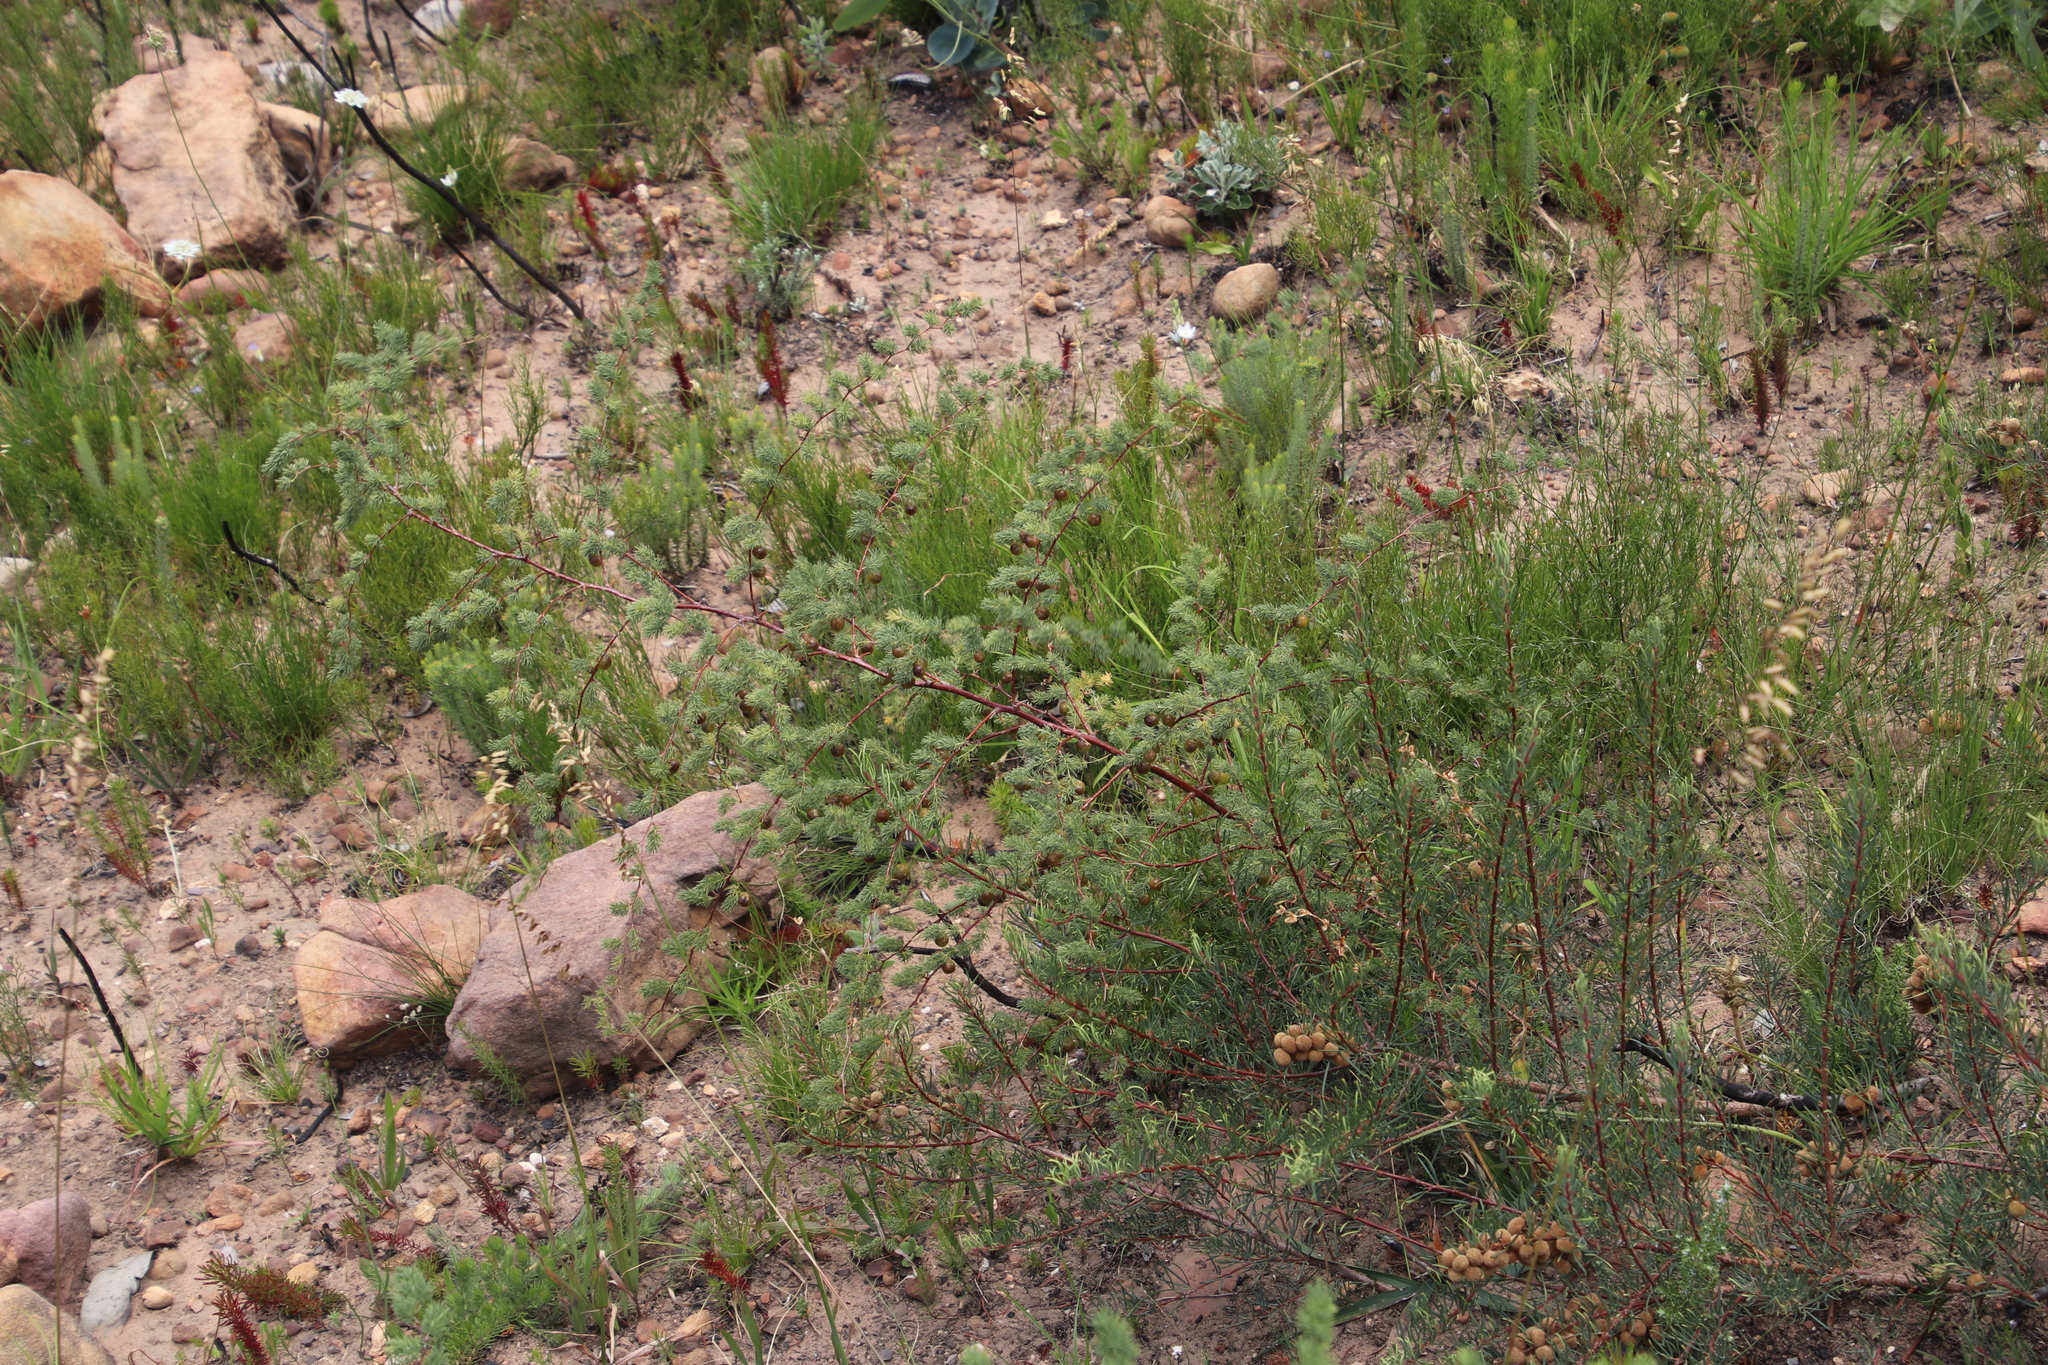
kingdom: Plantae
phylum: Tracheophyta
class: Liliopsida
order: Asparagales
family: Asparagaceae
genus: Asparagus
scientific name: Asparagus rubicundus
